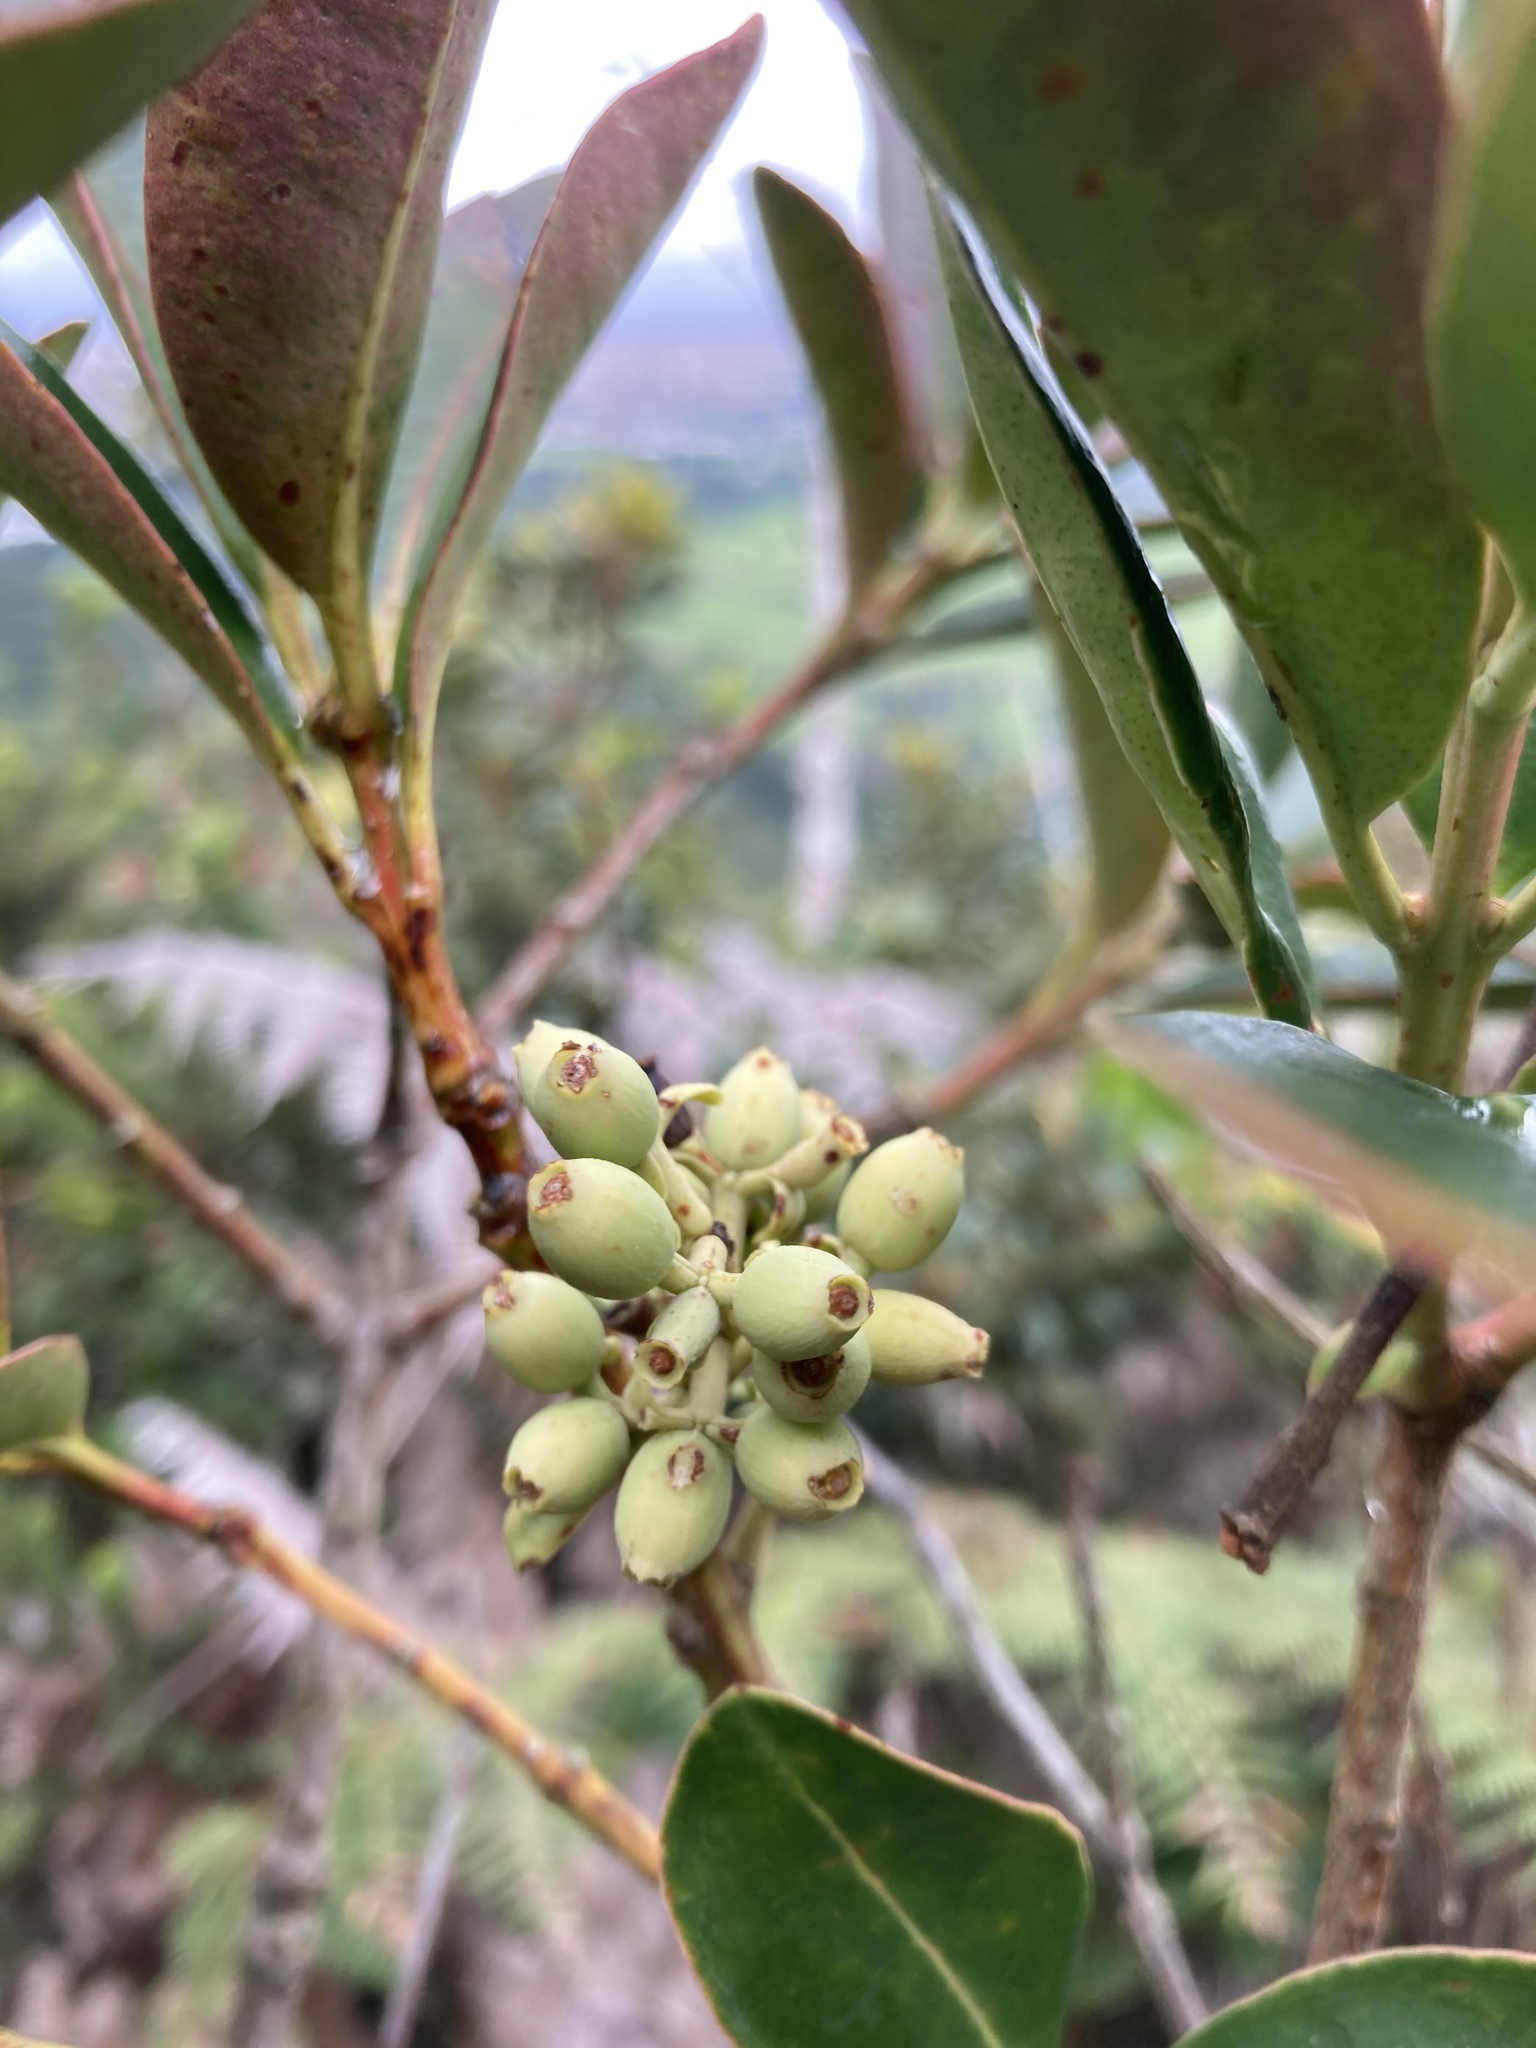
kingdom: Plantae
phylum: Tracheophyta
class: Magnoliopsida
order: Santalales
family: Loranthaceae
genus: Gaiadendron
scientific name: Gaiadendron punctatum
